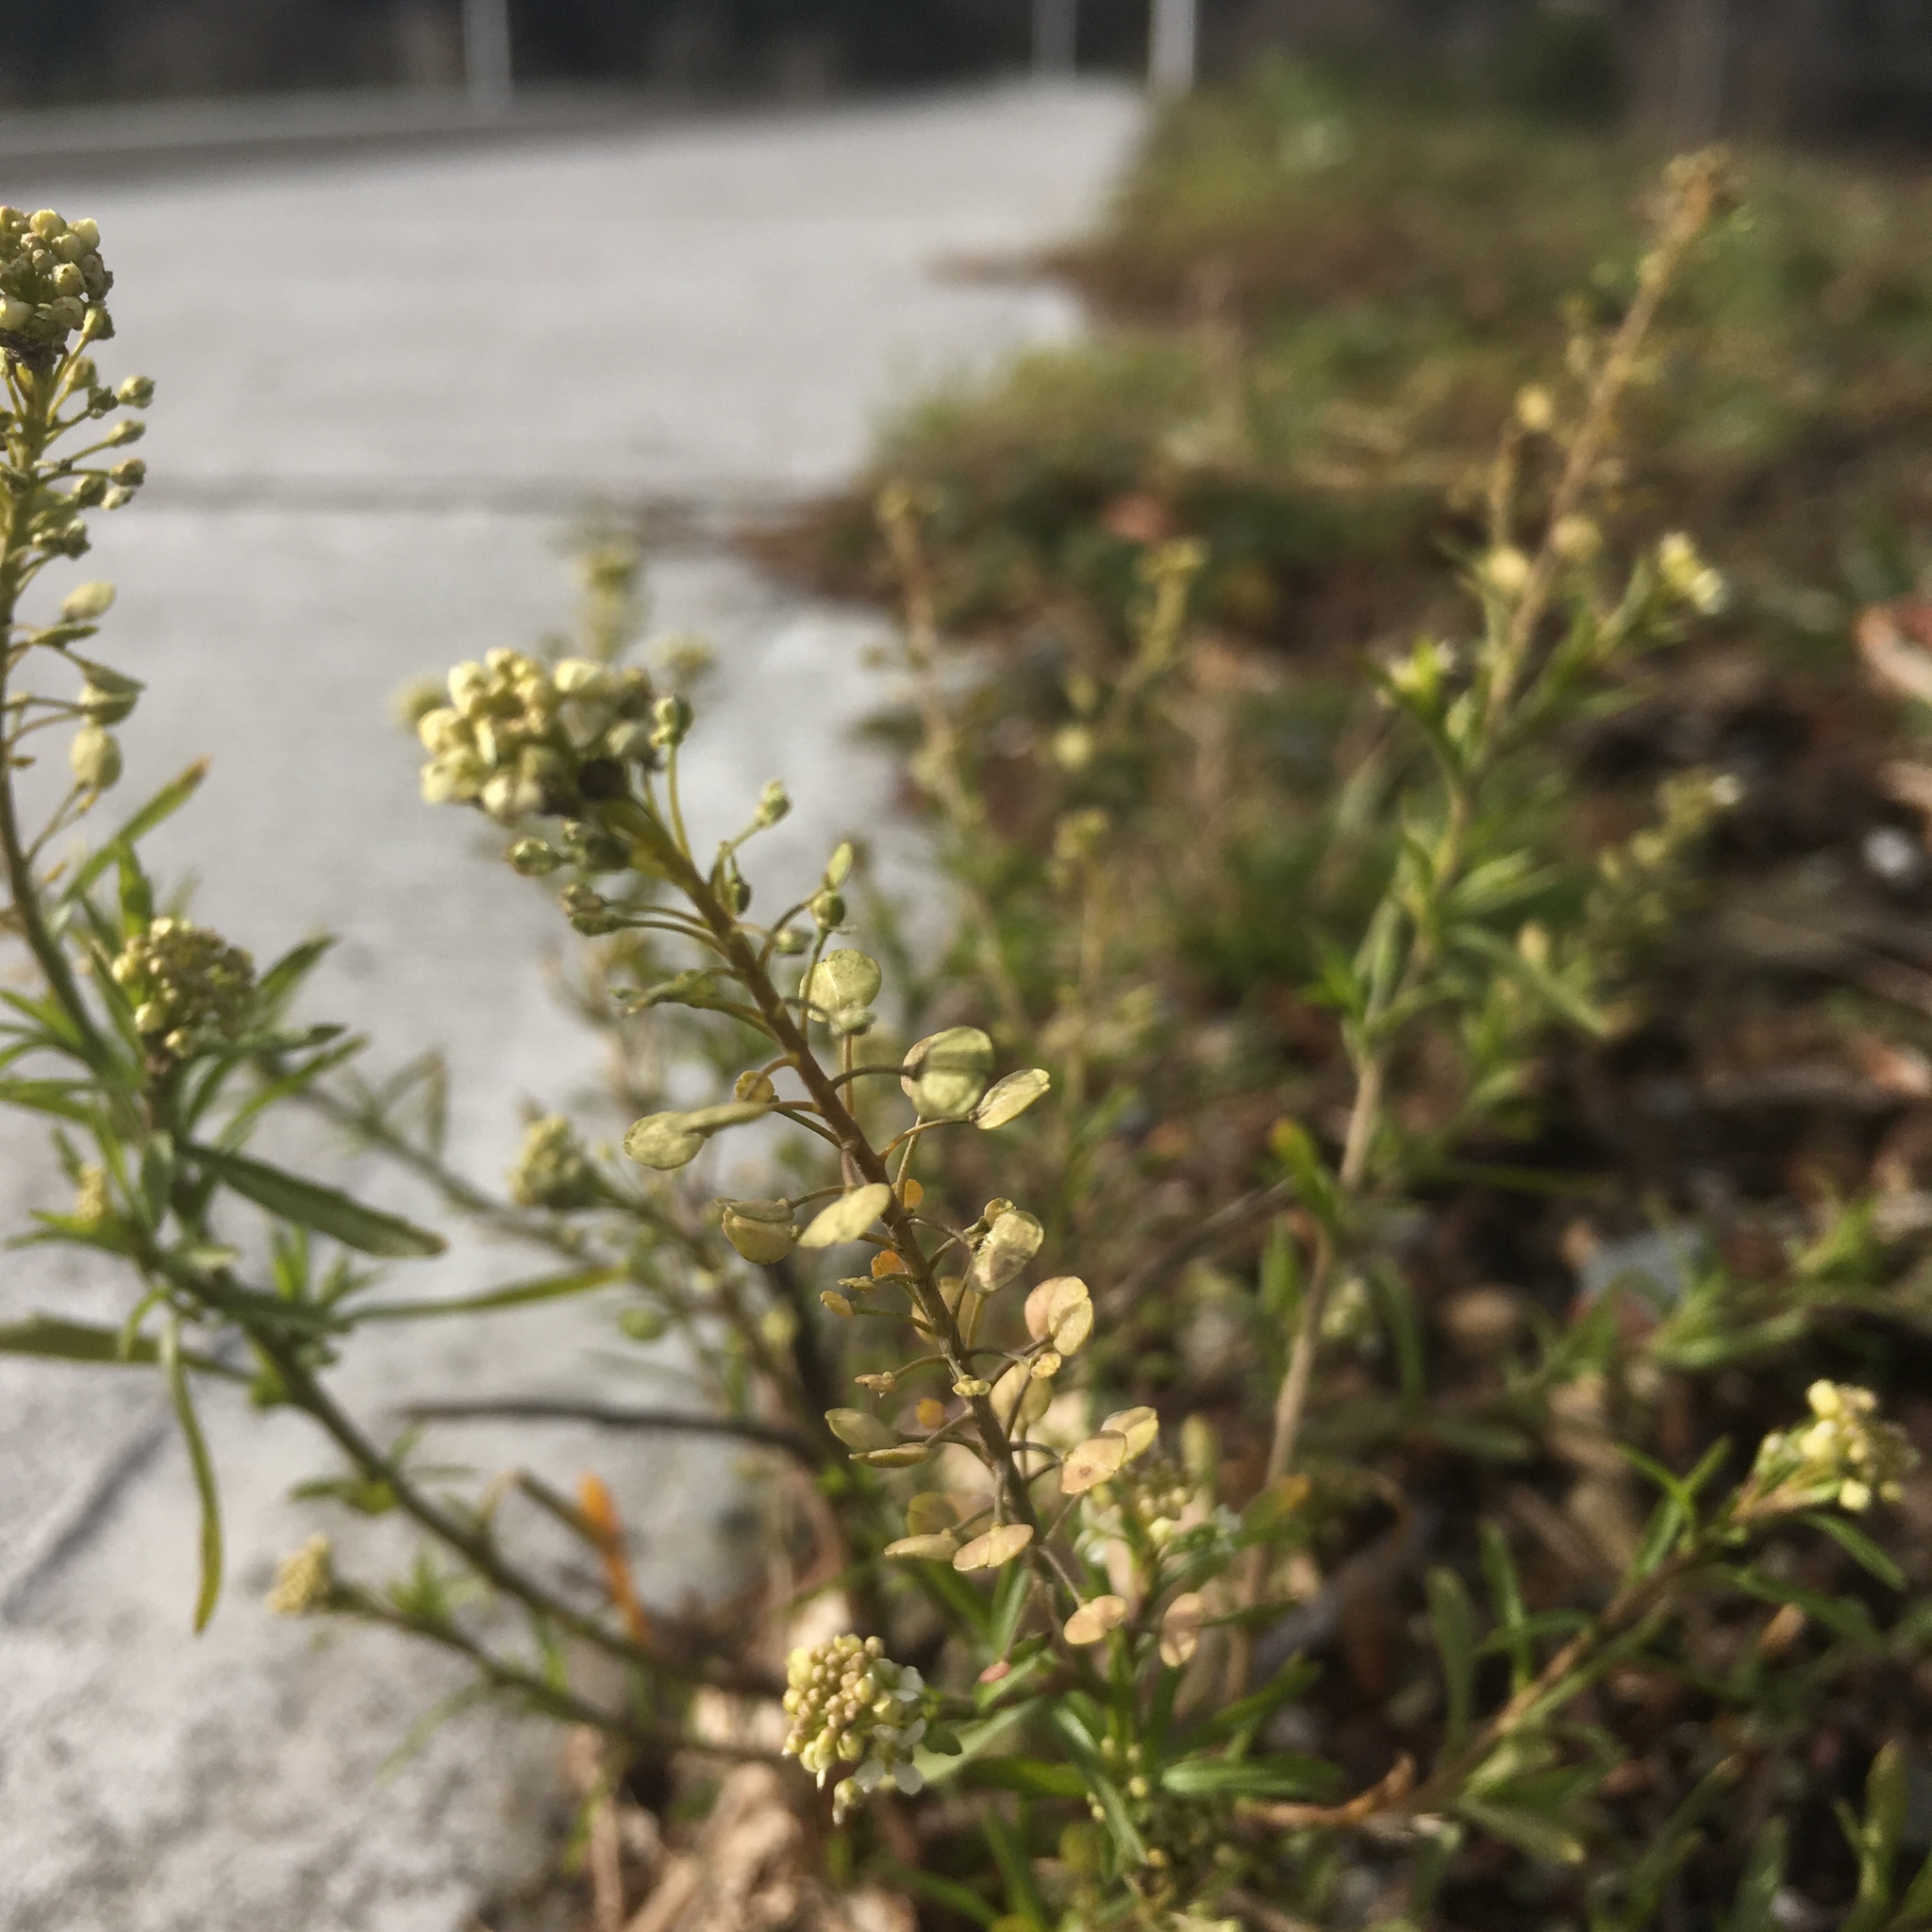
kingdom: Plantae
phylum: Tracheophyta
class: Magnoliopsida
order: Brassicales
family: Brassicaceae
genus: Lepidium
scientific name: Lepidium virginicum
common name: Least pepperwort
